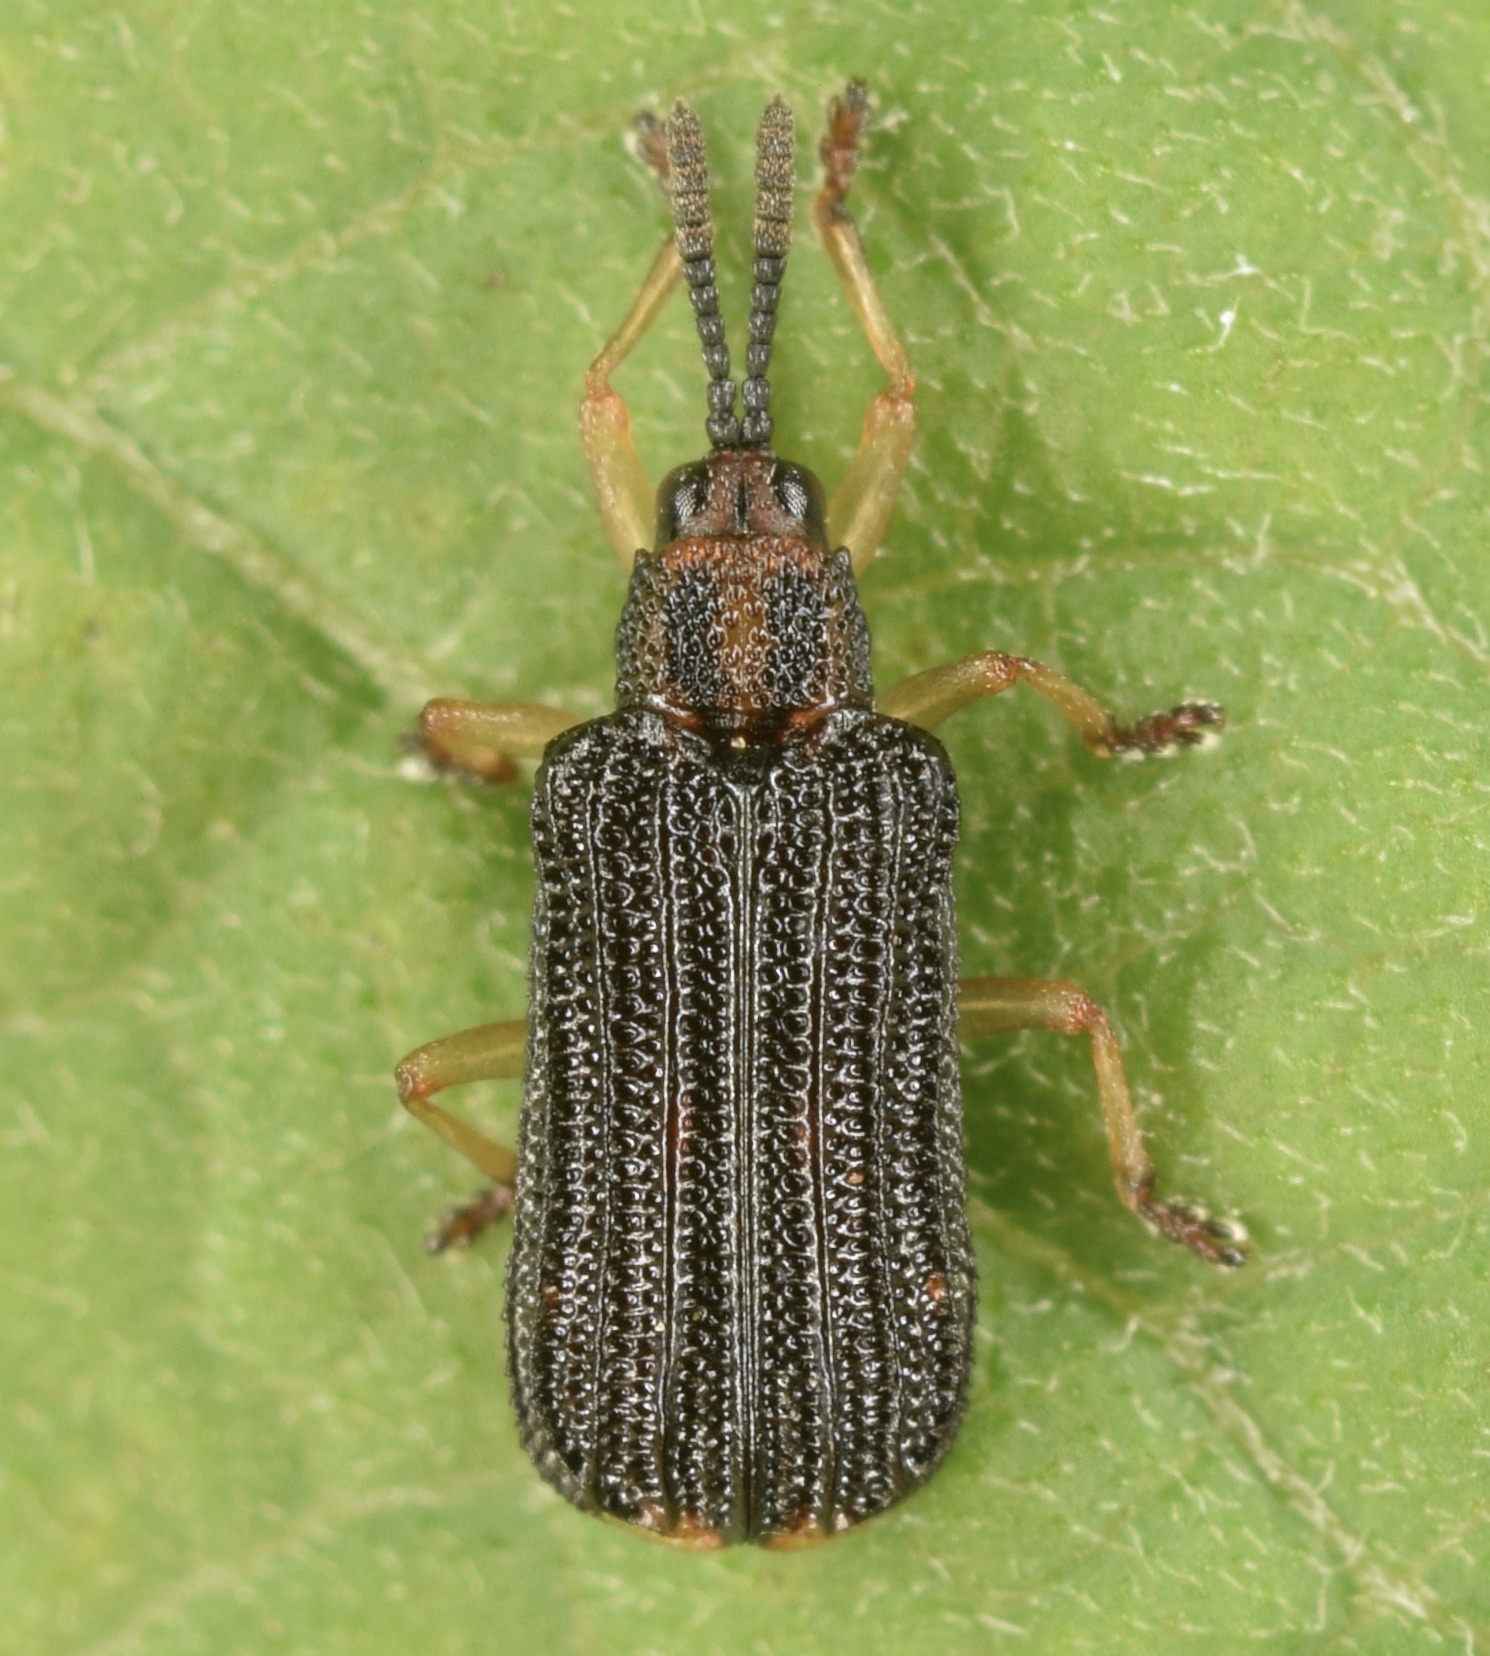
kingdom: Animalia
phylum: Arthropoda
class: Insecta
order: Coleoptera
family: Chrysomelidae
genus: Sumitrosis
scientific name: Sumitrosis inaequalis
